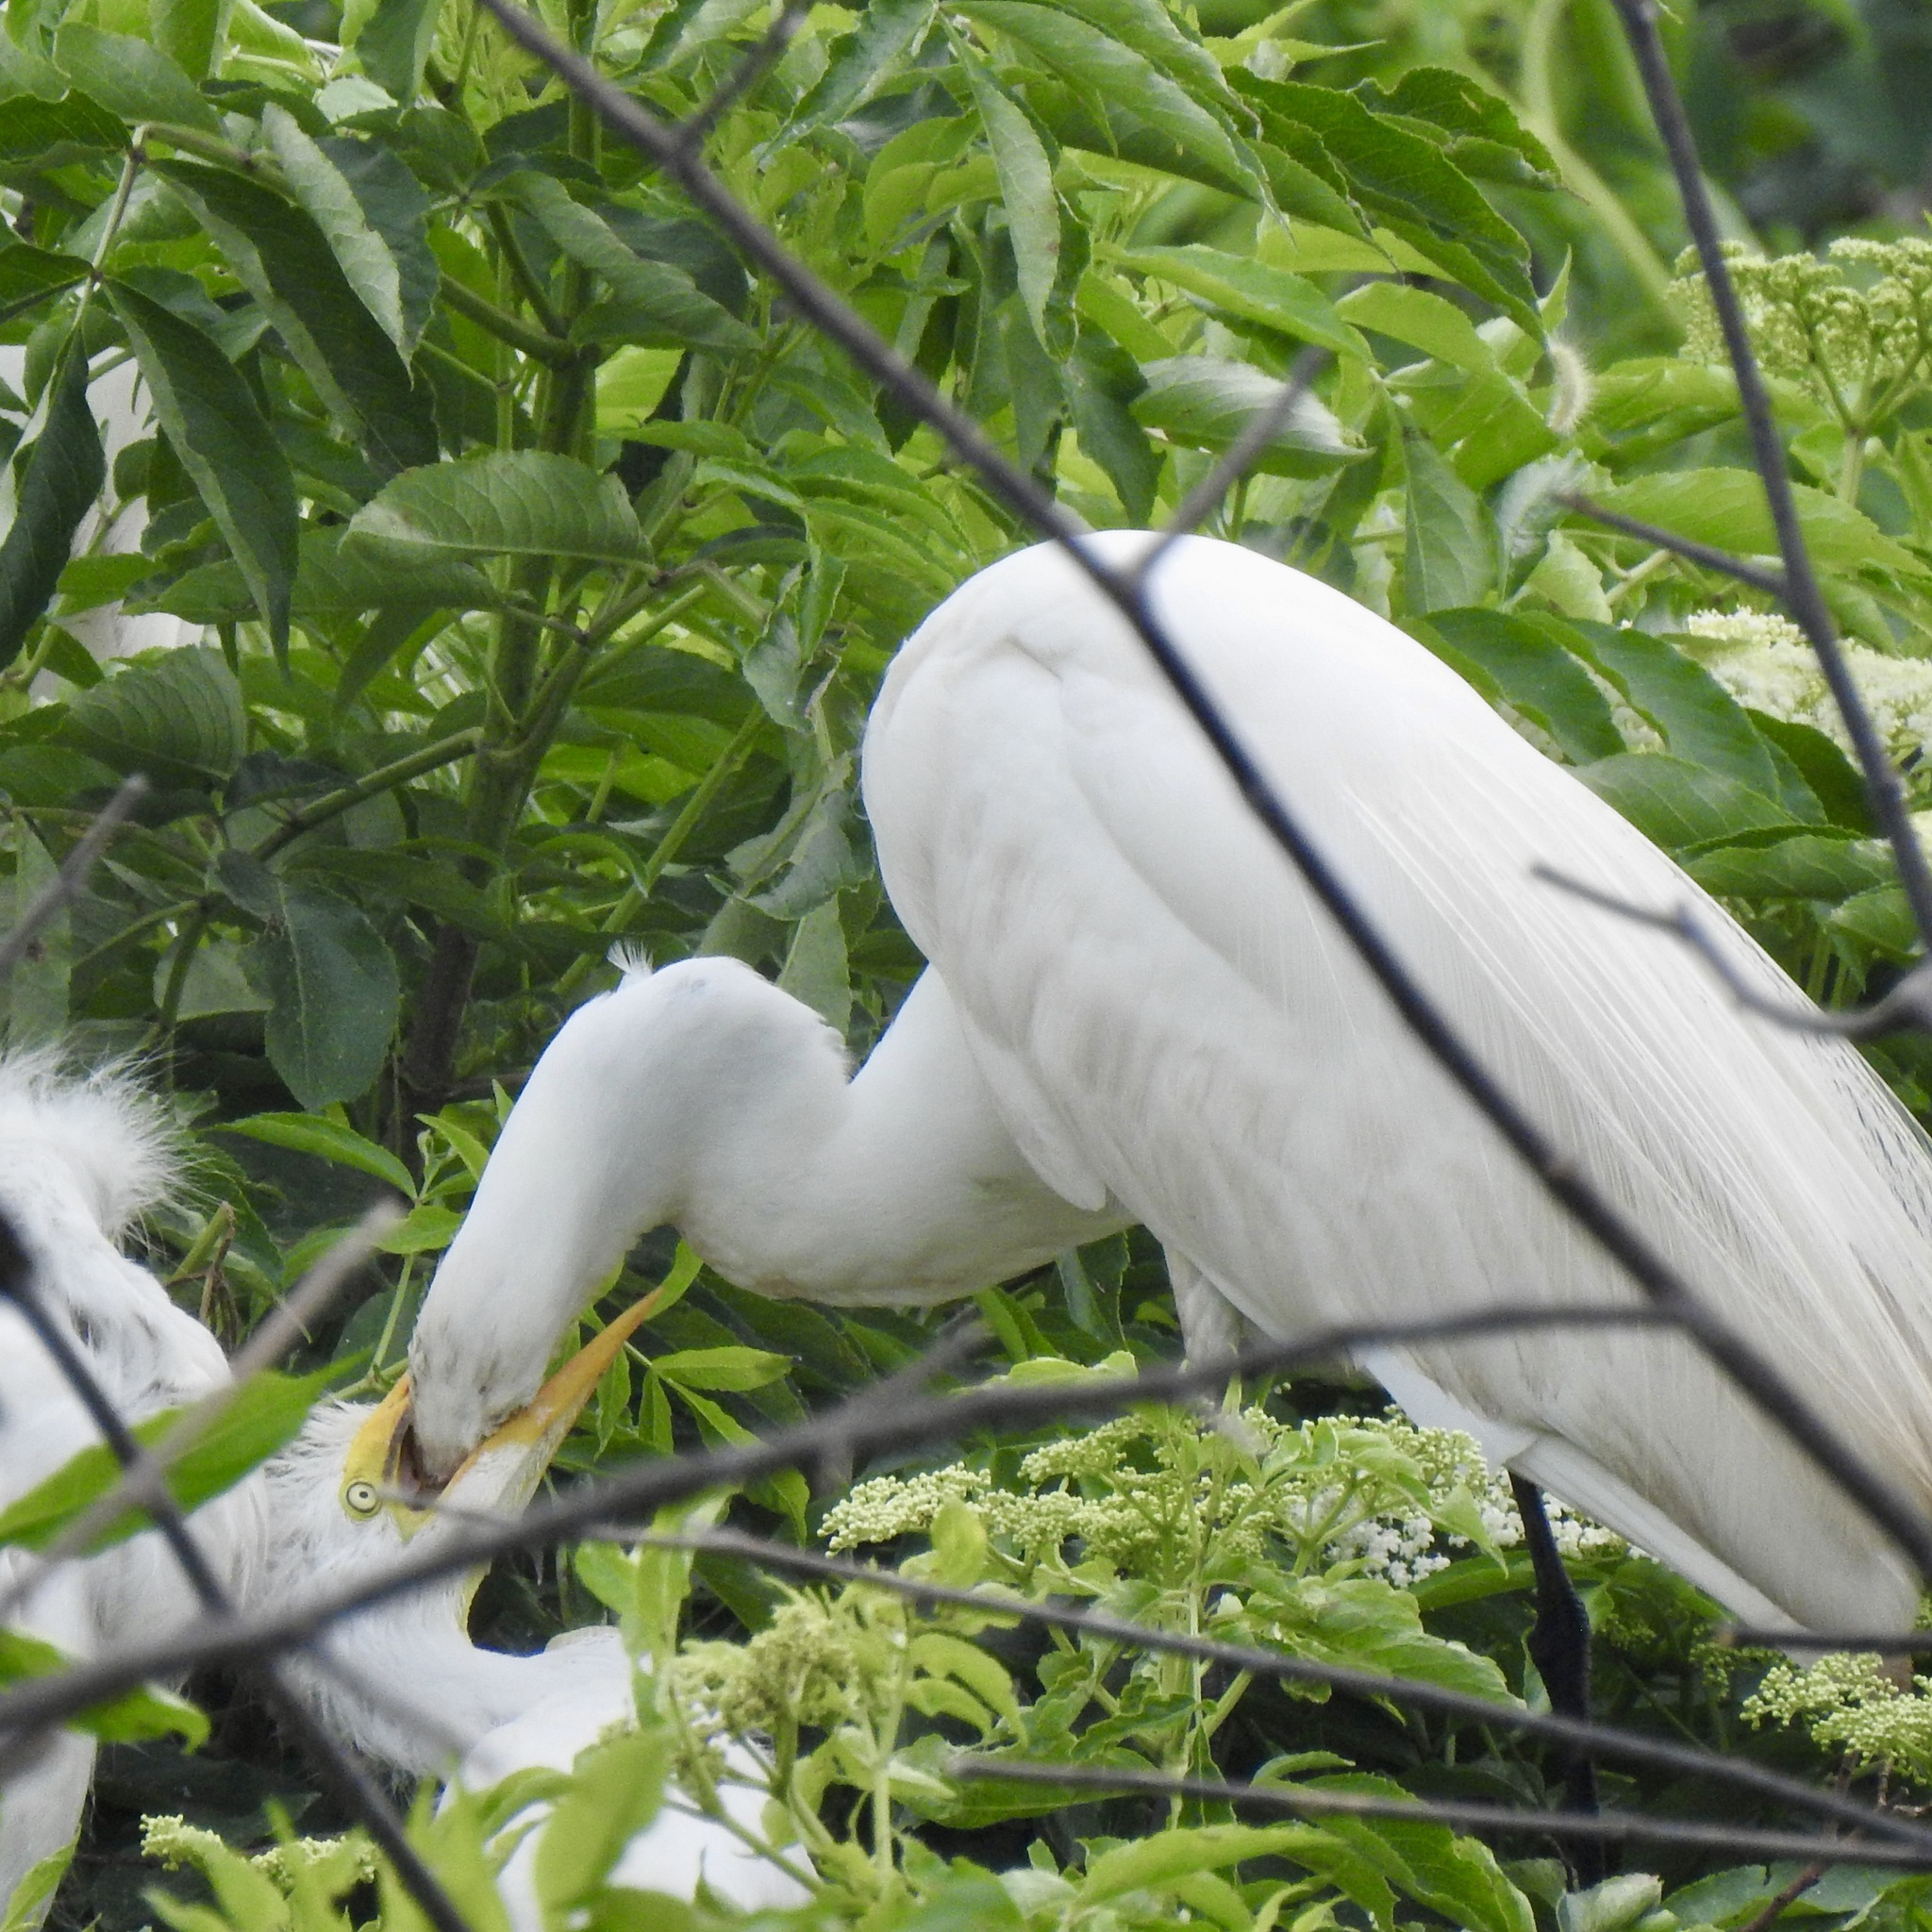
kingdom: Animalia
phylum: Chordata
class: Aves
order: Pelecaniformes
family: Ardeidae
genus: Ardea
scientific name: Ardea alba
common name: Great egret
